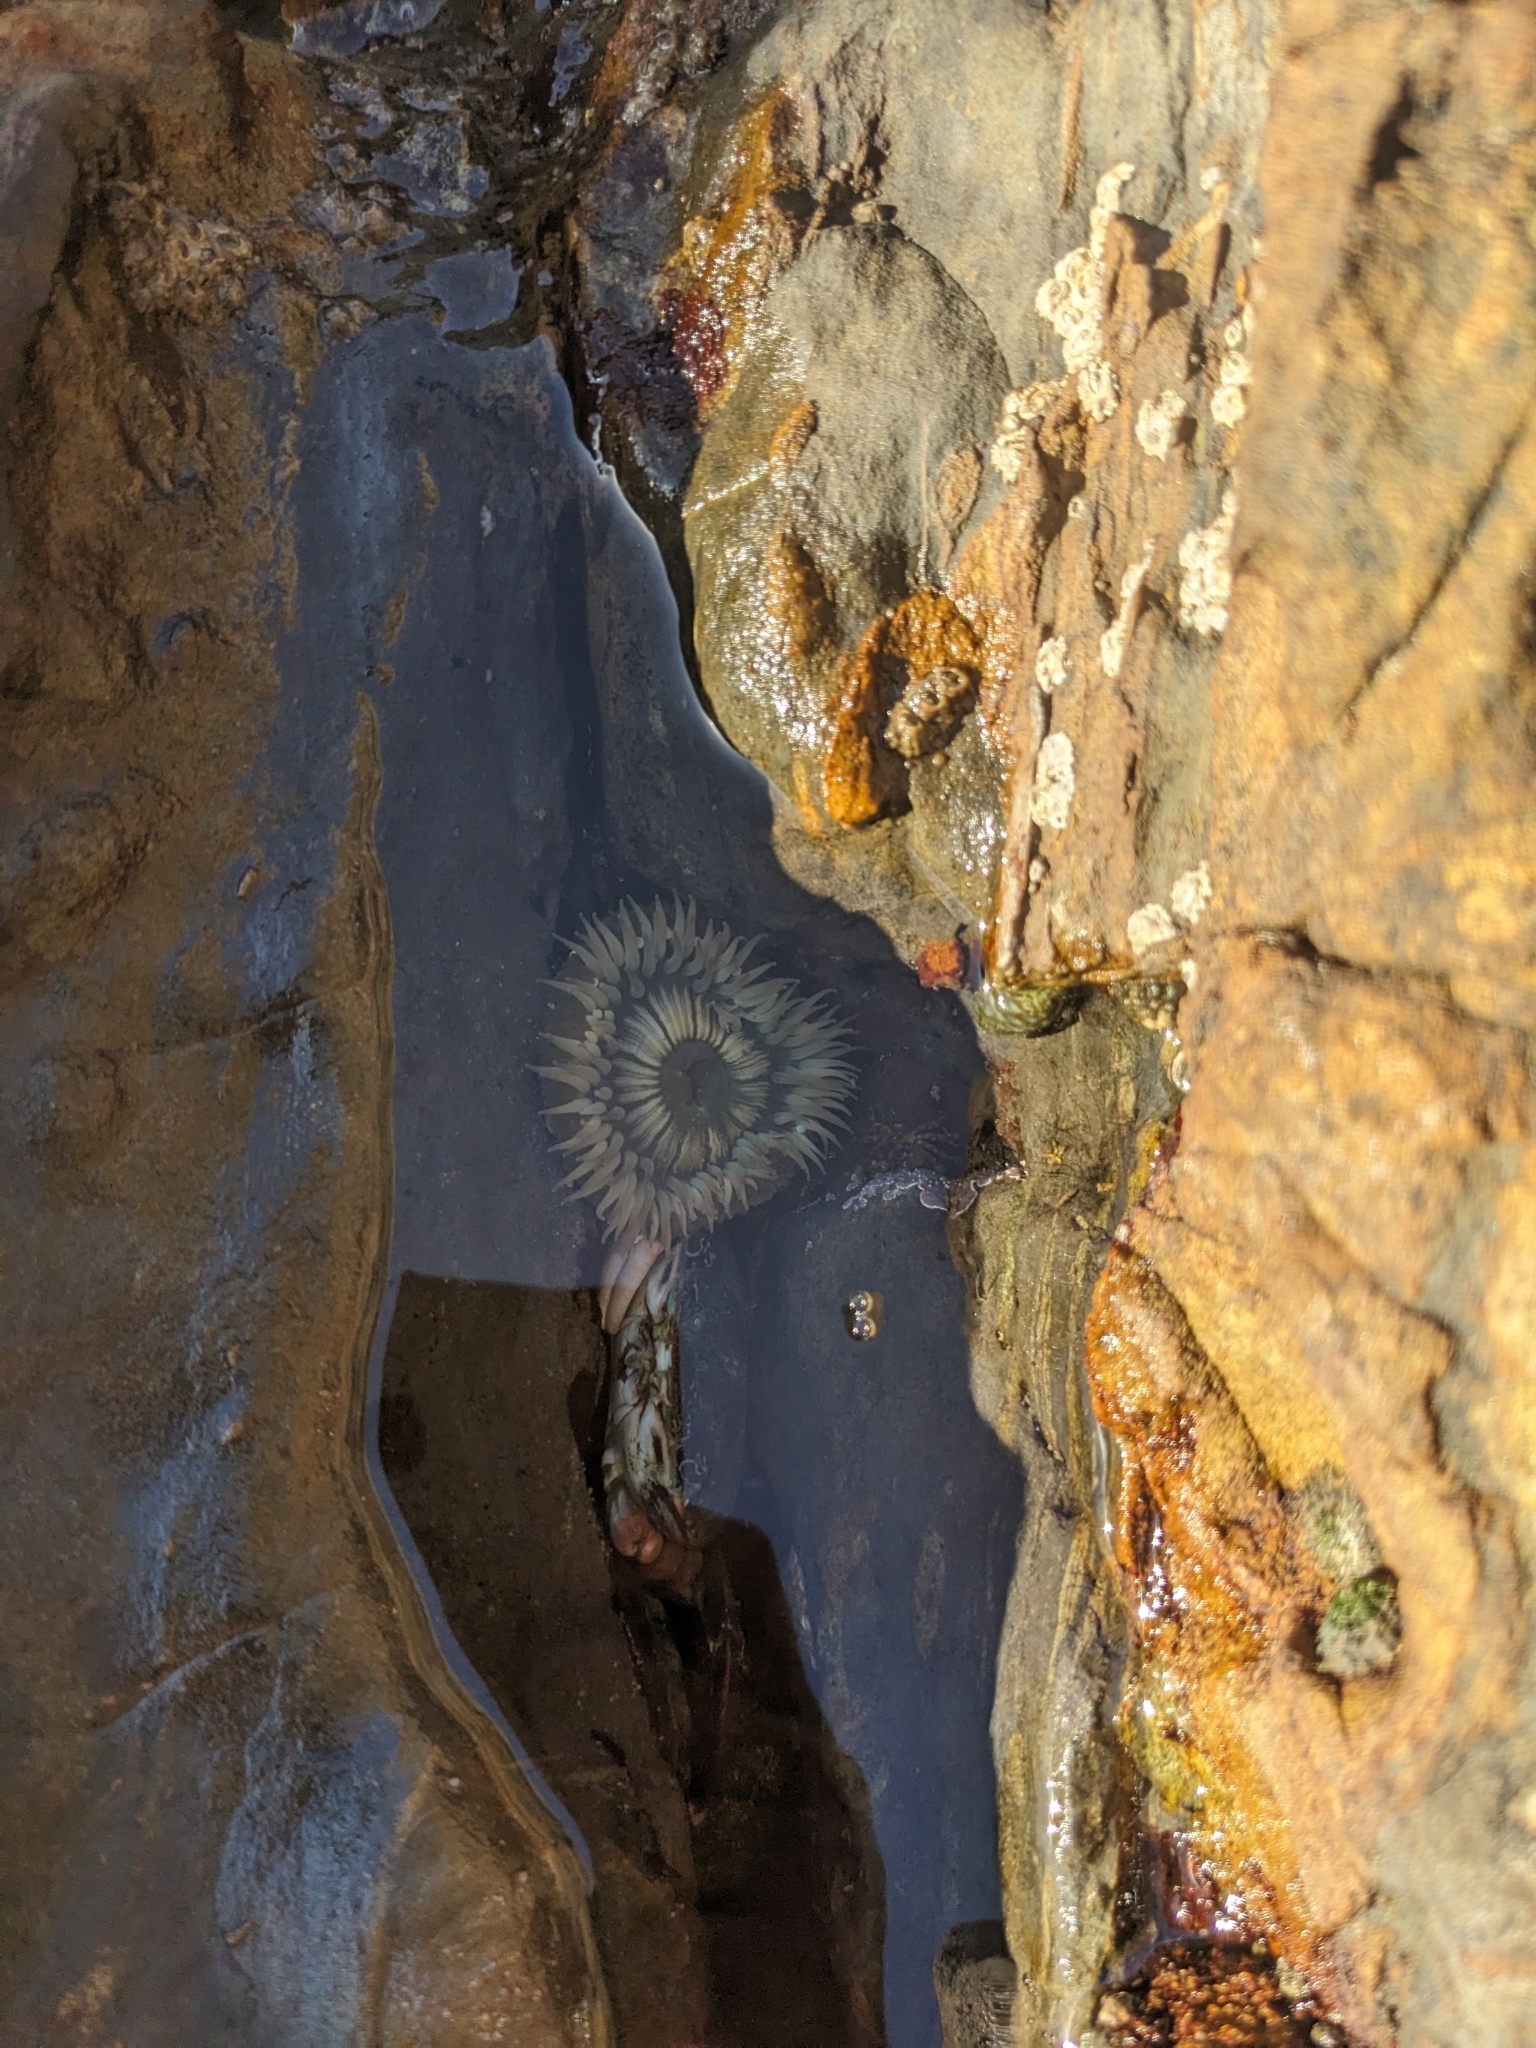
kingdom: Animalia
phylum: Cnidaria
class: Anthozoa
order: Actiniaria
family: Actiniidae
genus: Anthopleura
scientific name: Anthopleura sola
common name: Sun anemone
